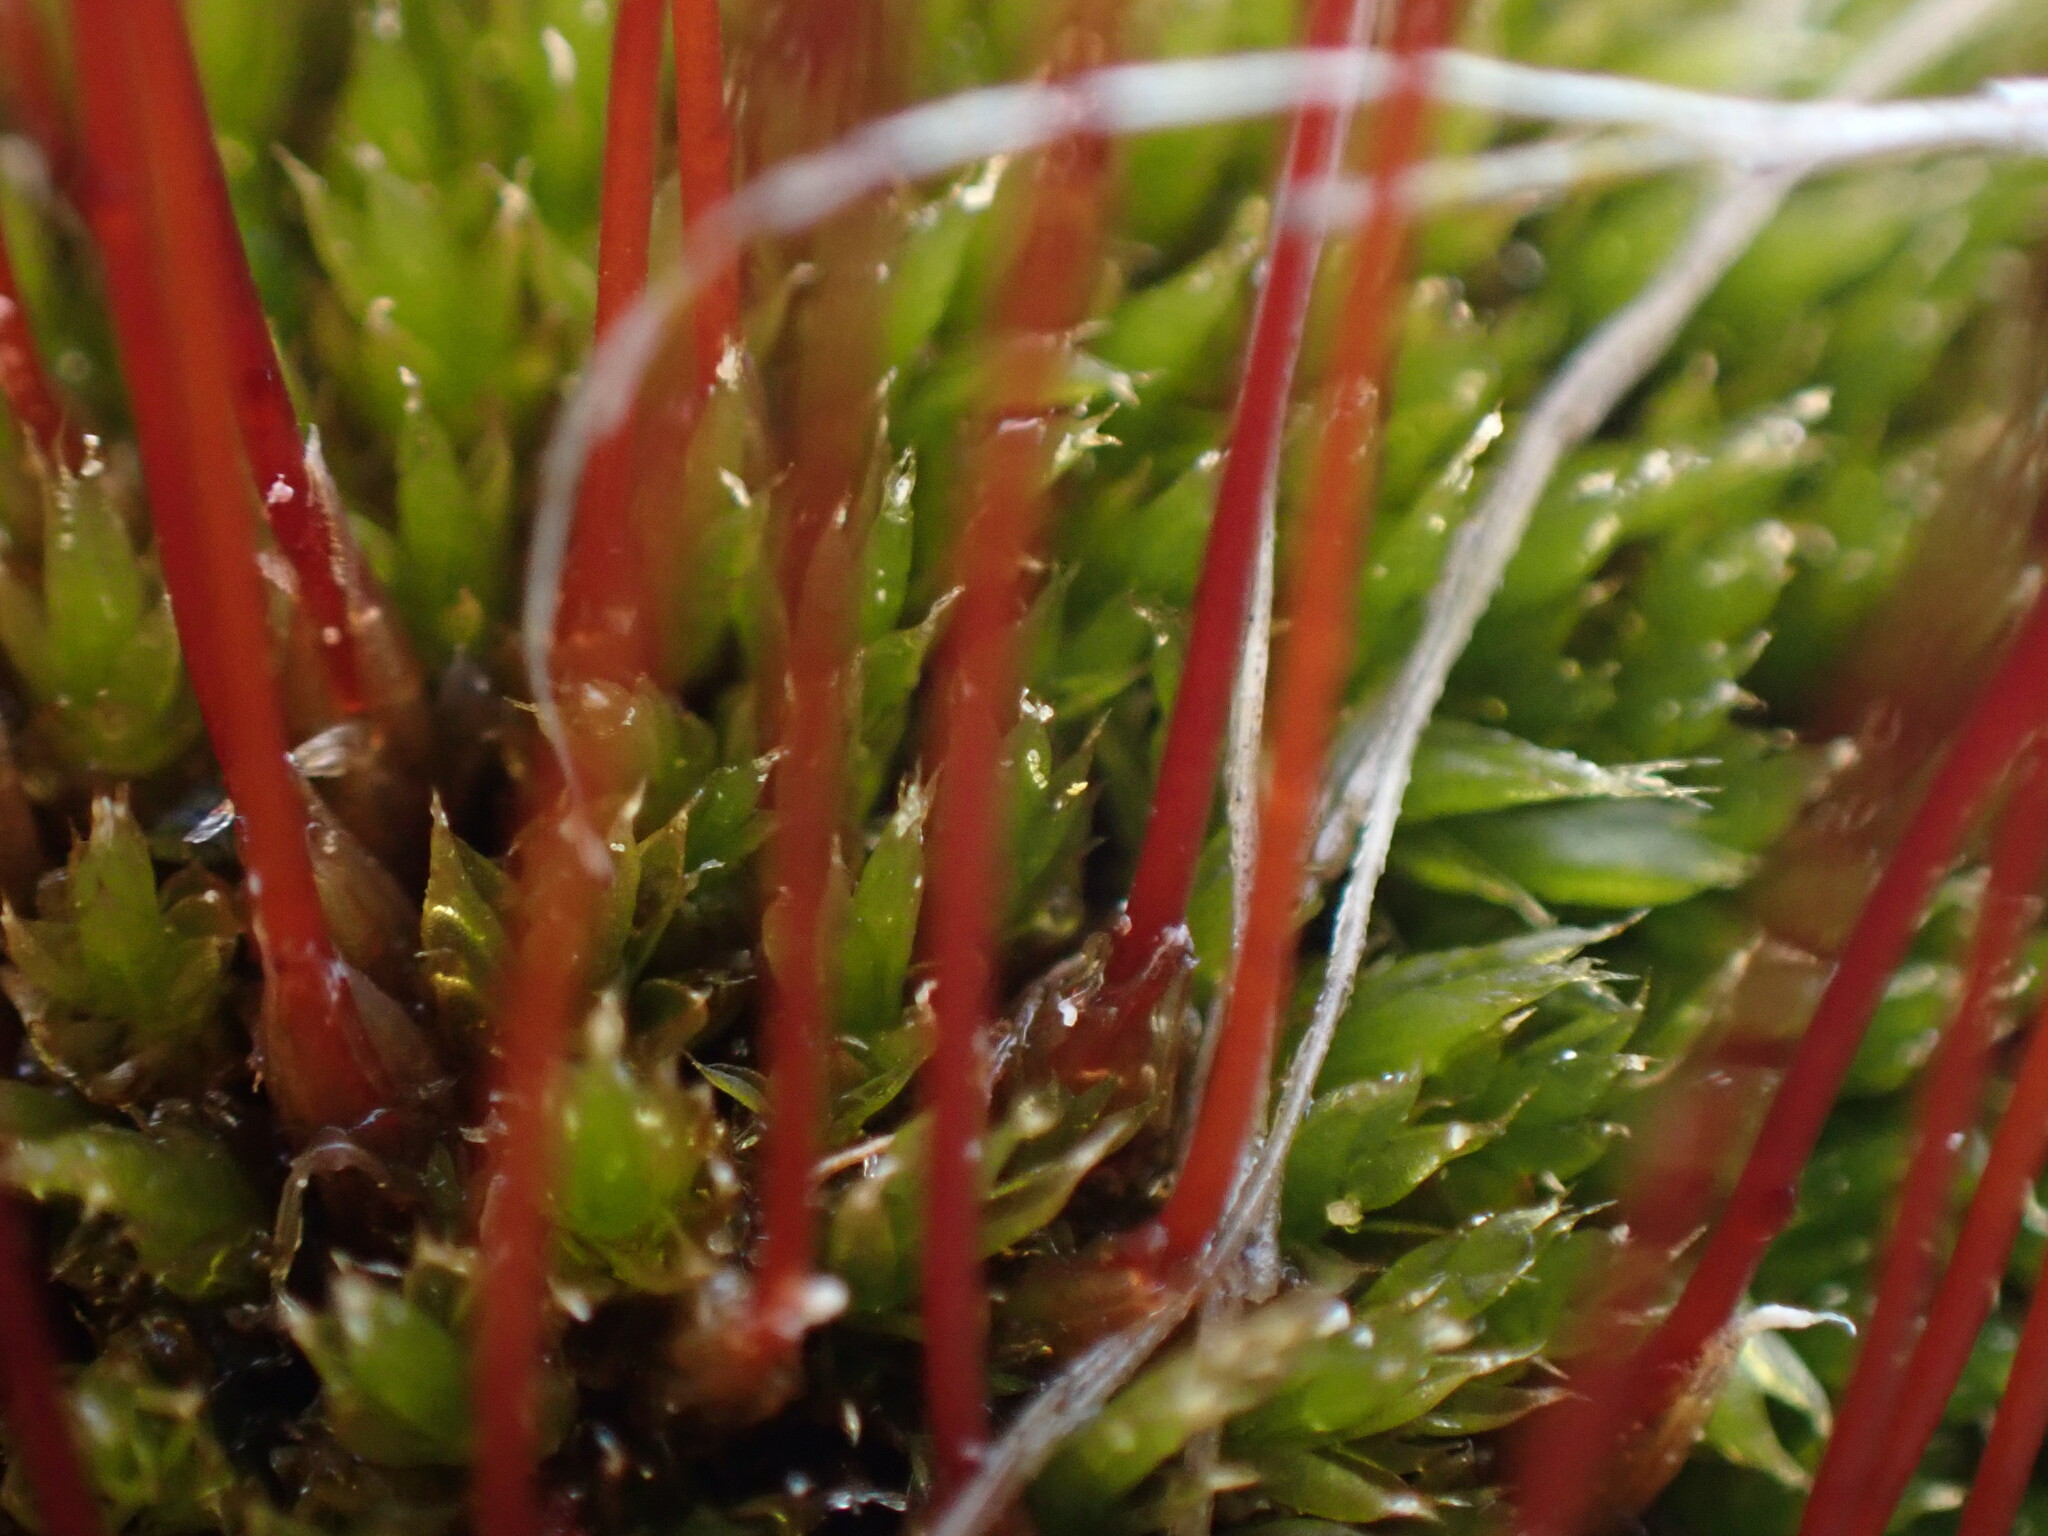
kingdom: Plantae
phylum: Bryophyta
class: Bryopsida
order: Splachnales
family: Splachnaceae
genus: Tetraplodon
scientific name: Tetraplodon mnioides
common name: Entire-leaved nitrogen moss
